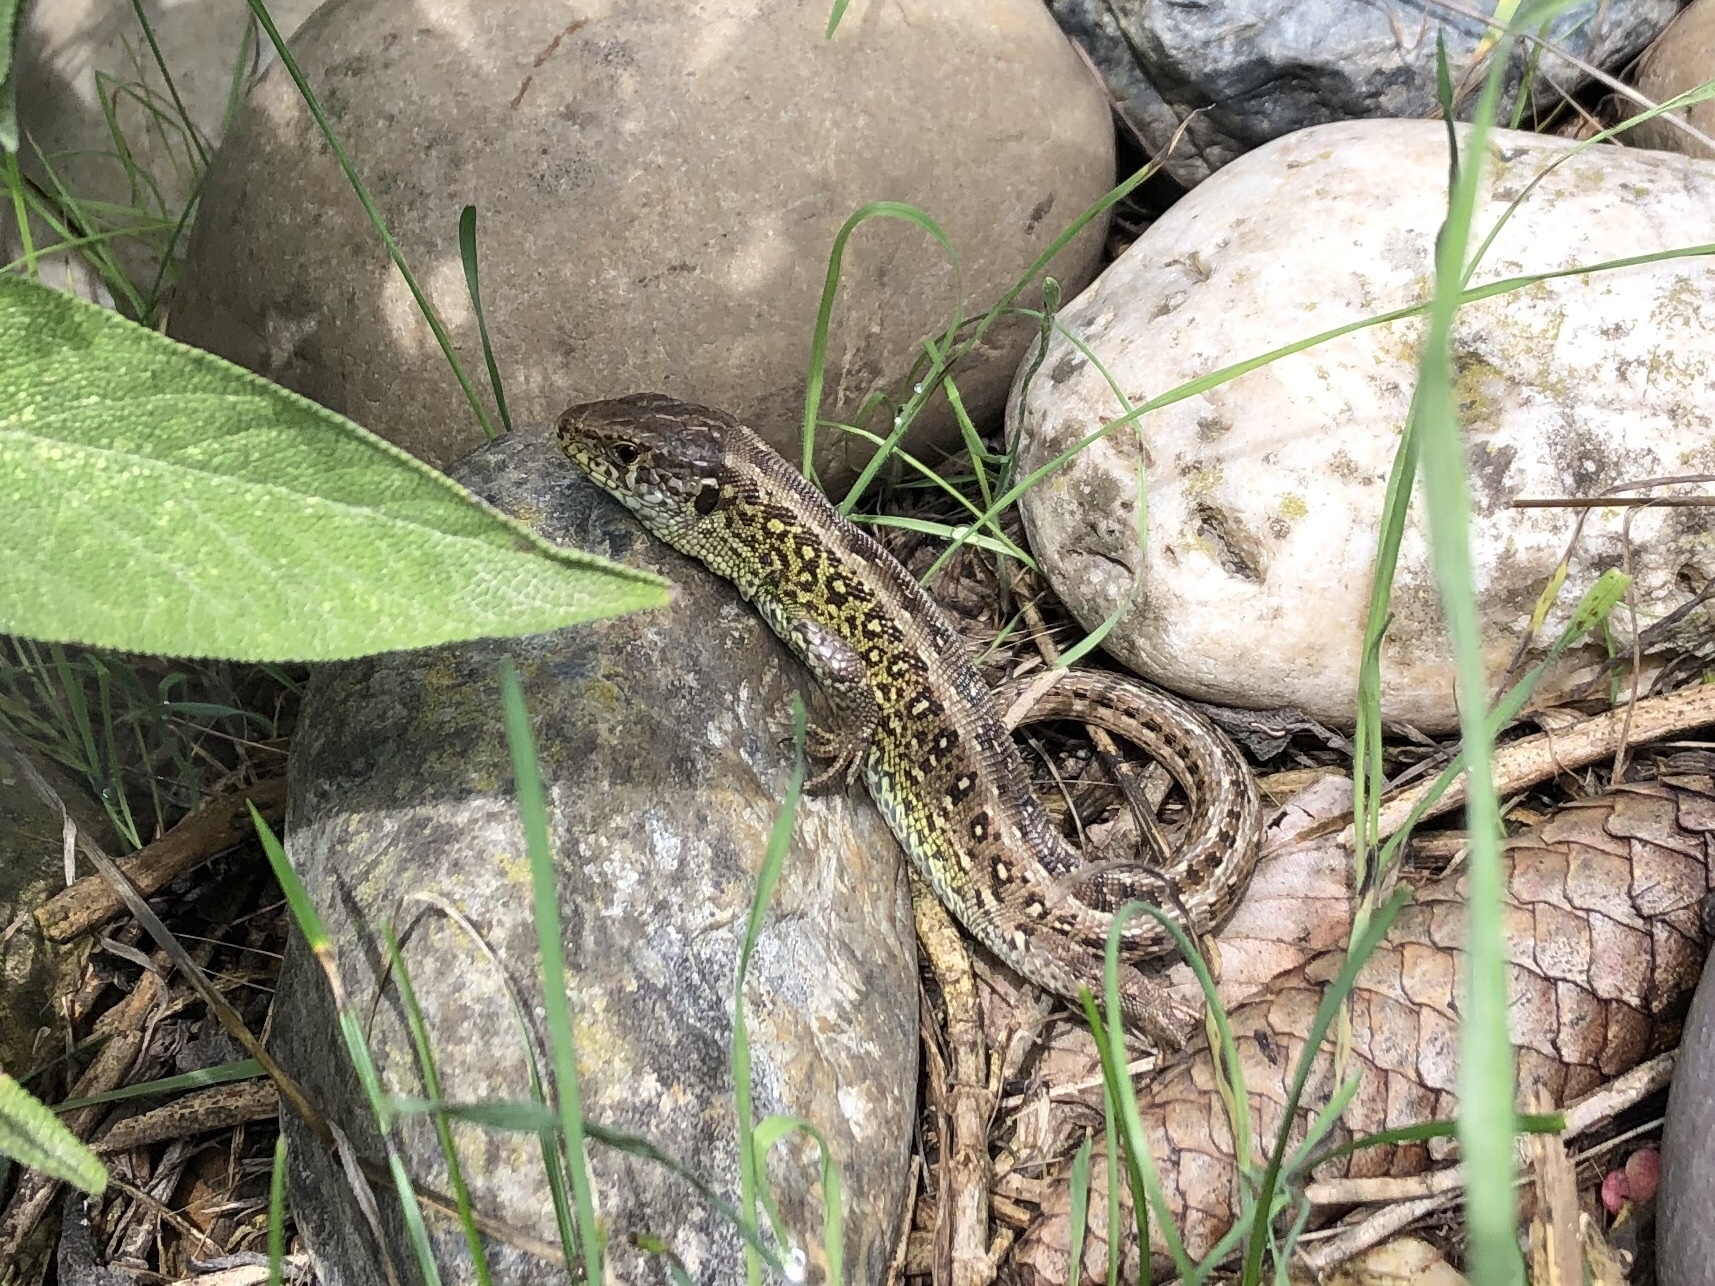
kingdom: Animalia
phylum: Chordata
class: Squamata
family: Lacertidae
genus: Lacerta
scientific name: Lacerta agilis
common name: Sand lizard
